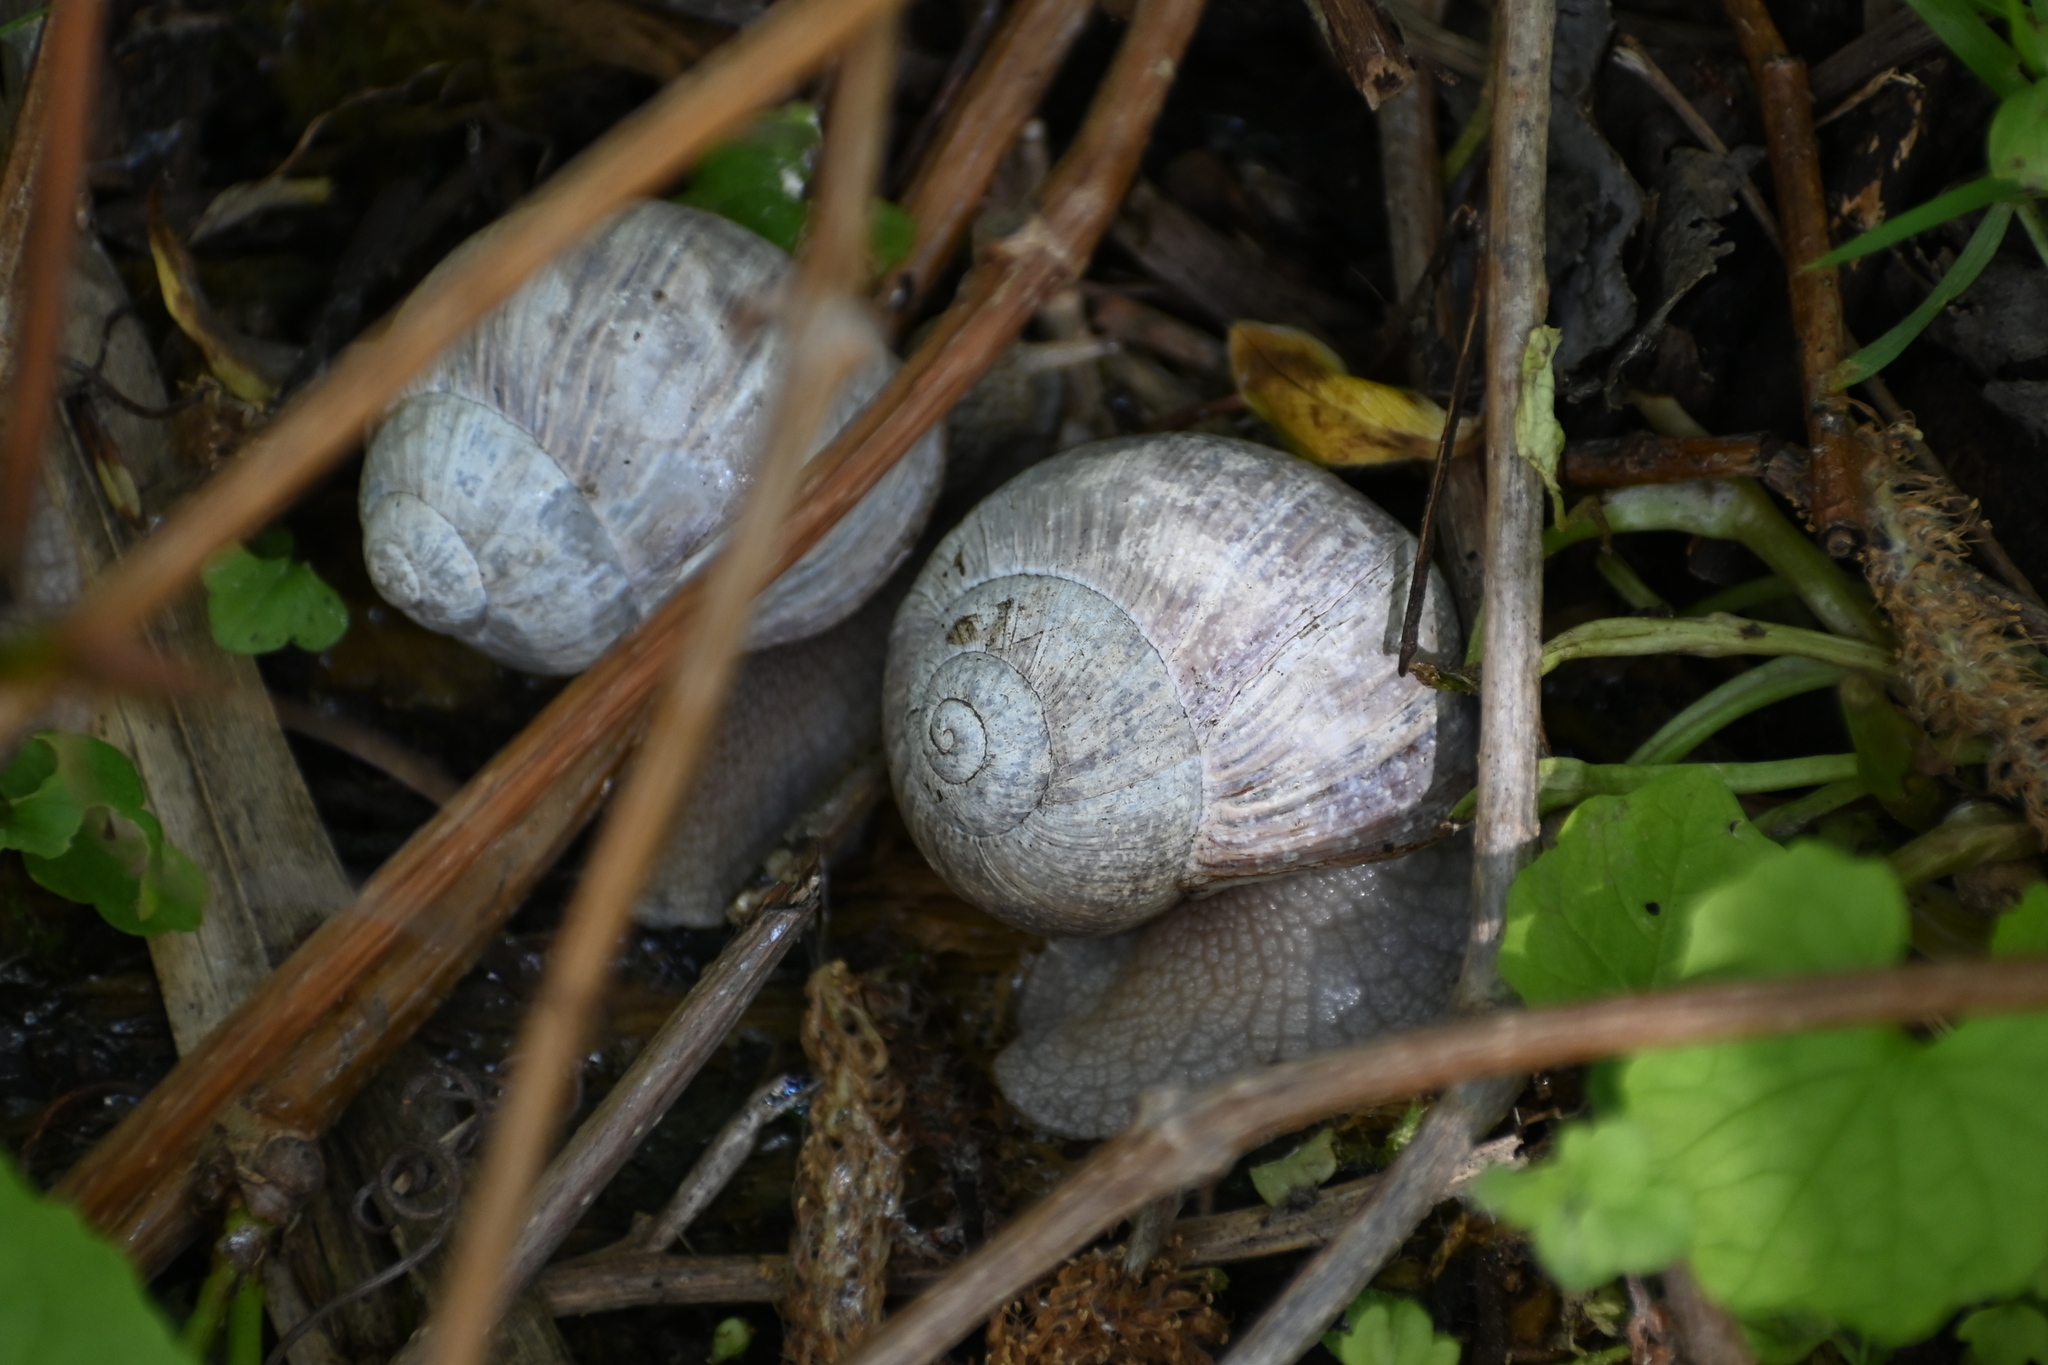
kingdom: Animalia
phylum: Mollusca
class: Gastropoda
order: Stylommatophora
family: Helicidae
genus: Helix
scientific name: Helix pomatia
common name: Roman snail
